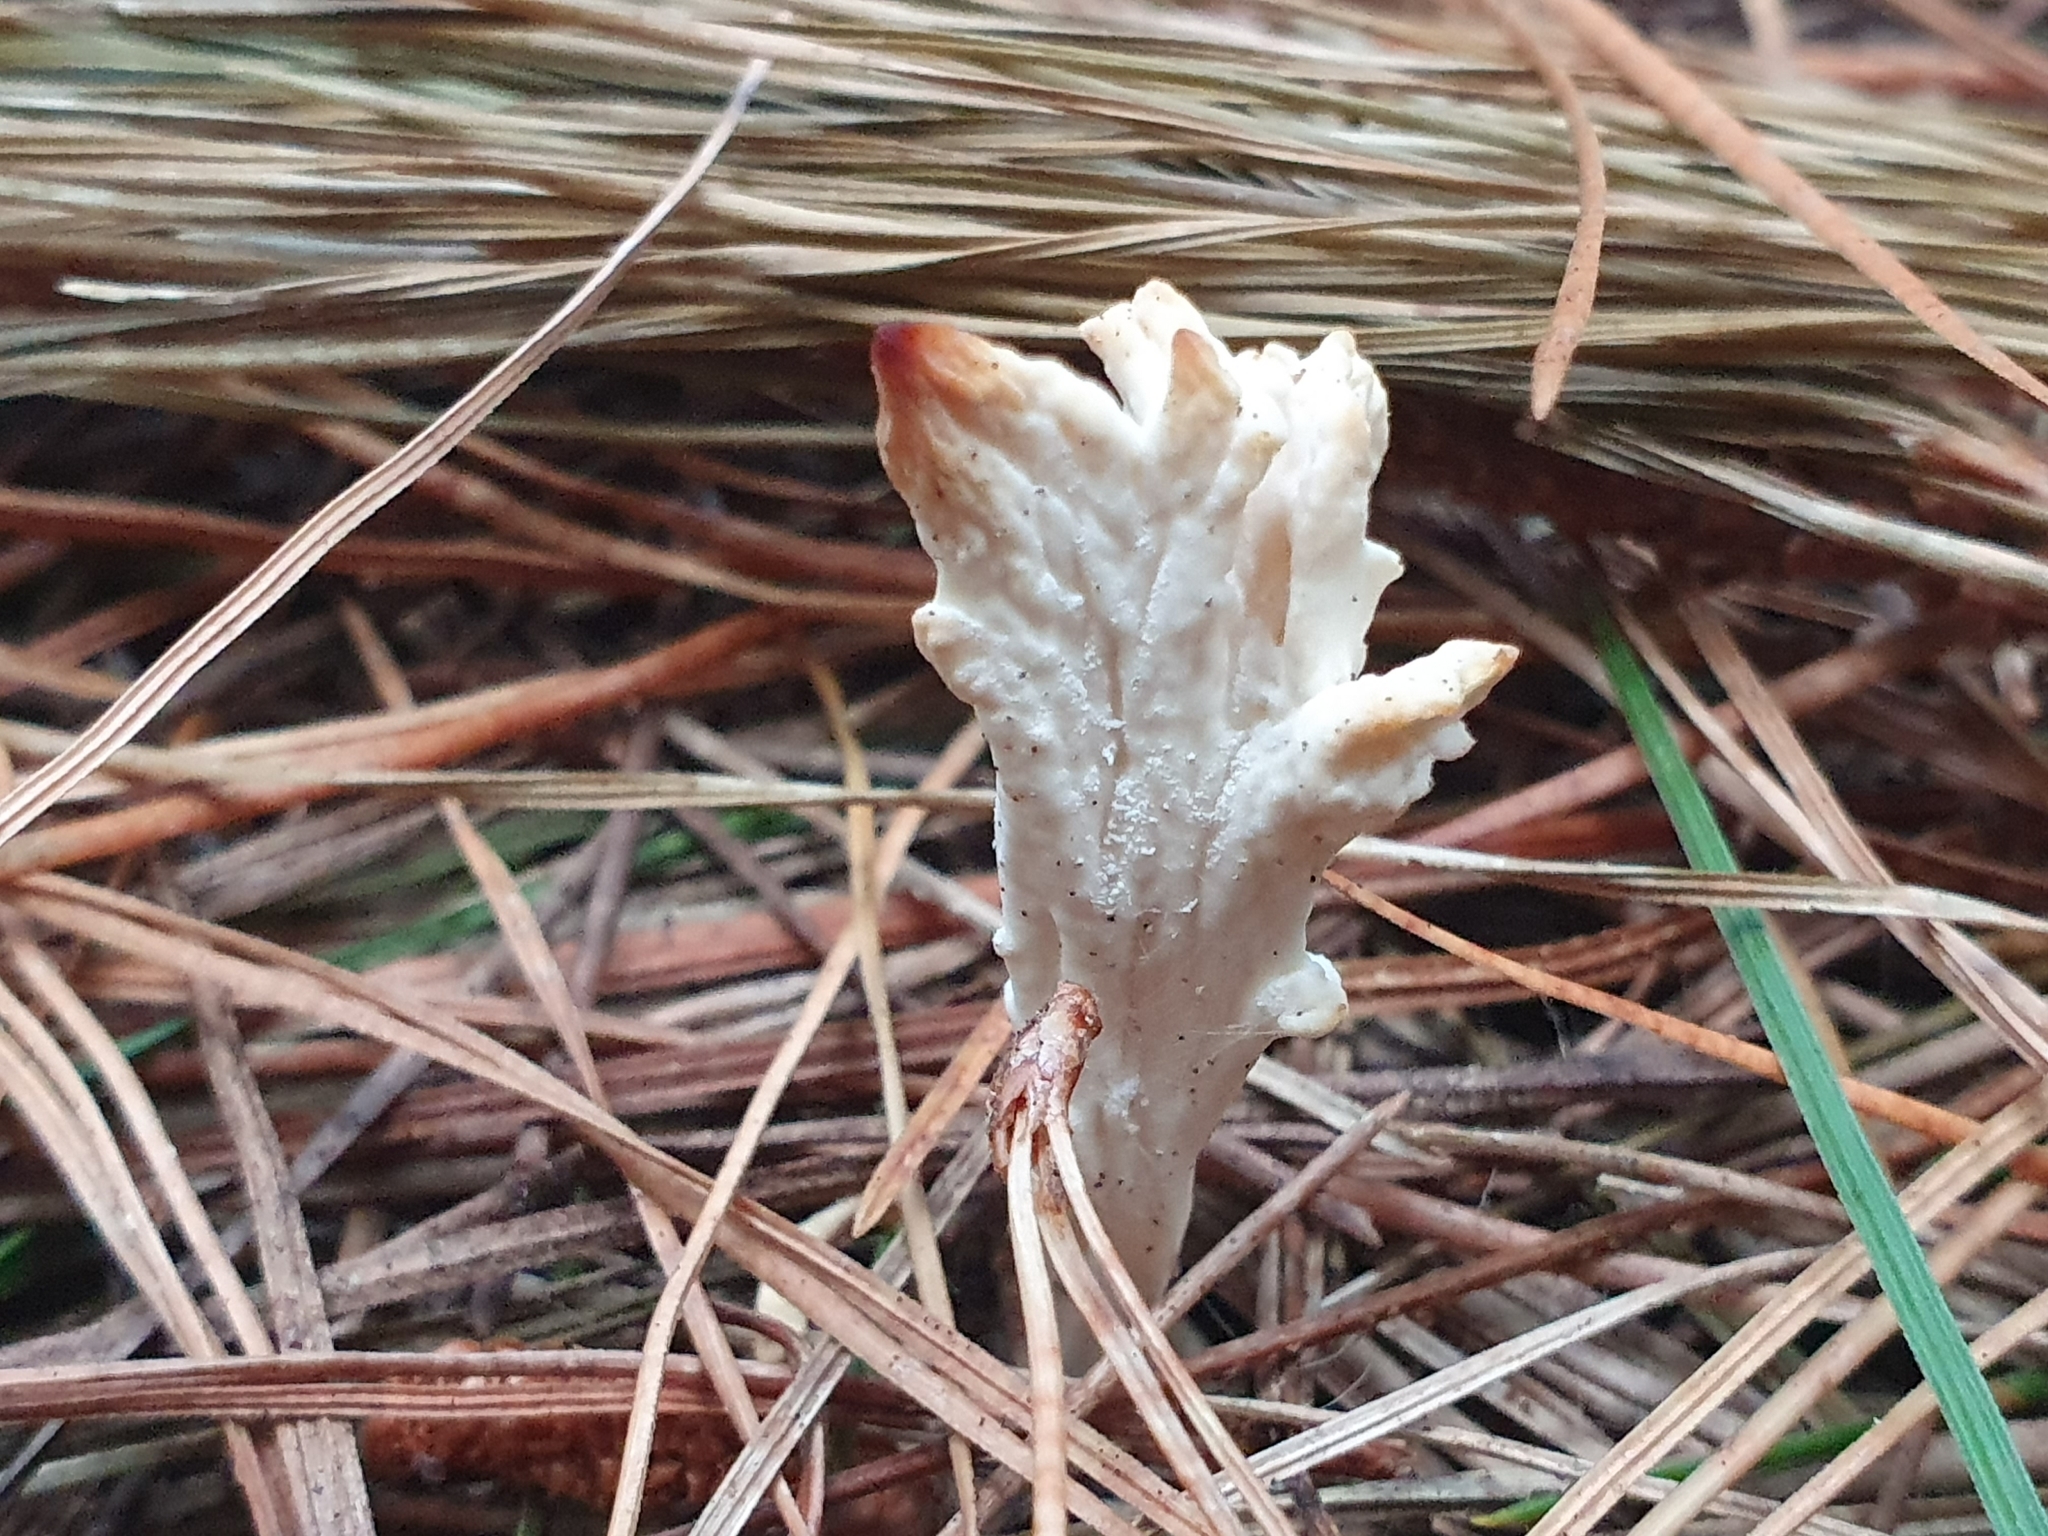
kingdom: Fungi
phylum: Basidiomycota
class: Agaricomycetes
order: Cantharellales
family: Hydnaceae
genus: Clavulina
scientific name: Clavulina rugosa
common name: Wrinkled club
